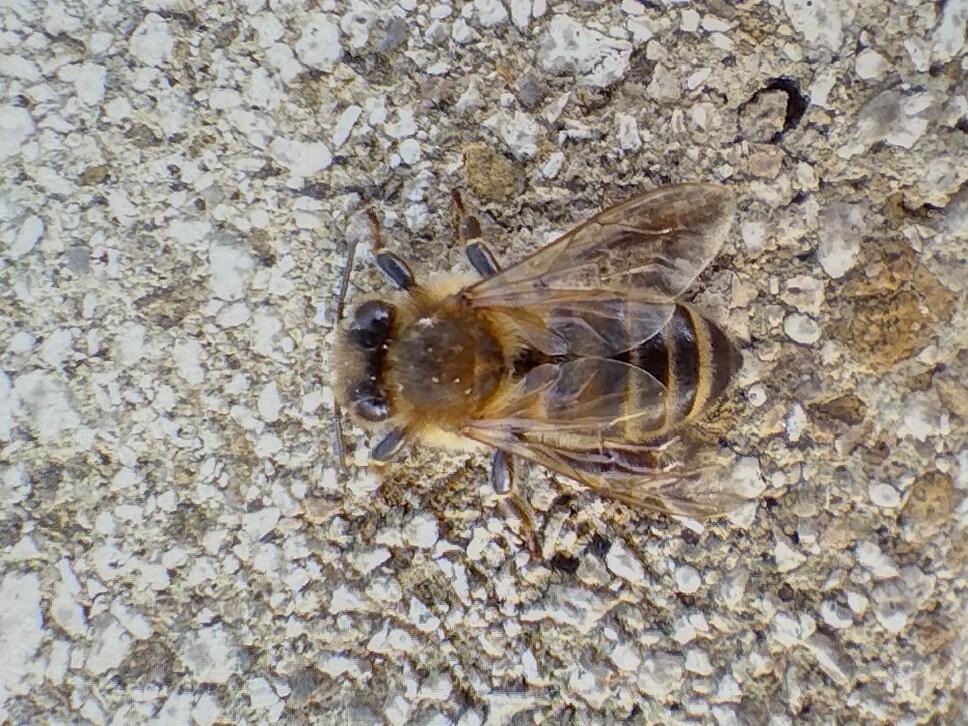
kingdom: Animalia
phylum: Arthropoda
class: Insecta
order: Hymenoptera
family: Apidae
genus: Apis
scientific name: Apis mellifera
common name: Honey bee
